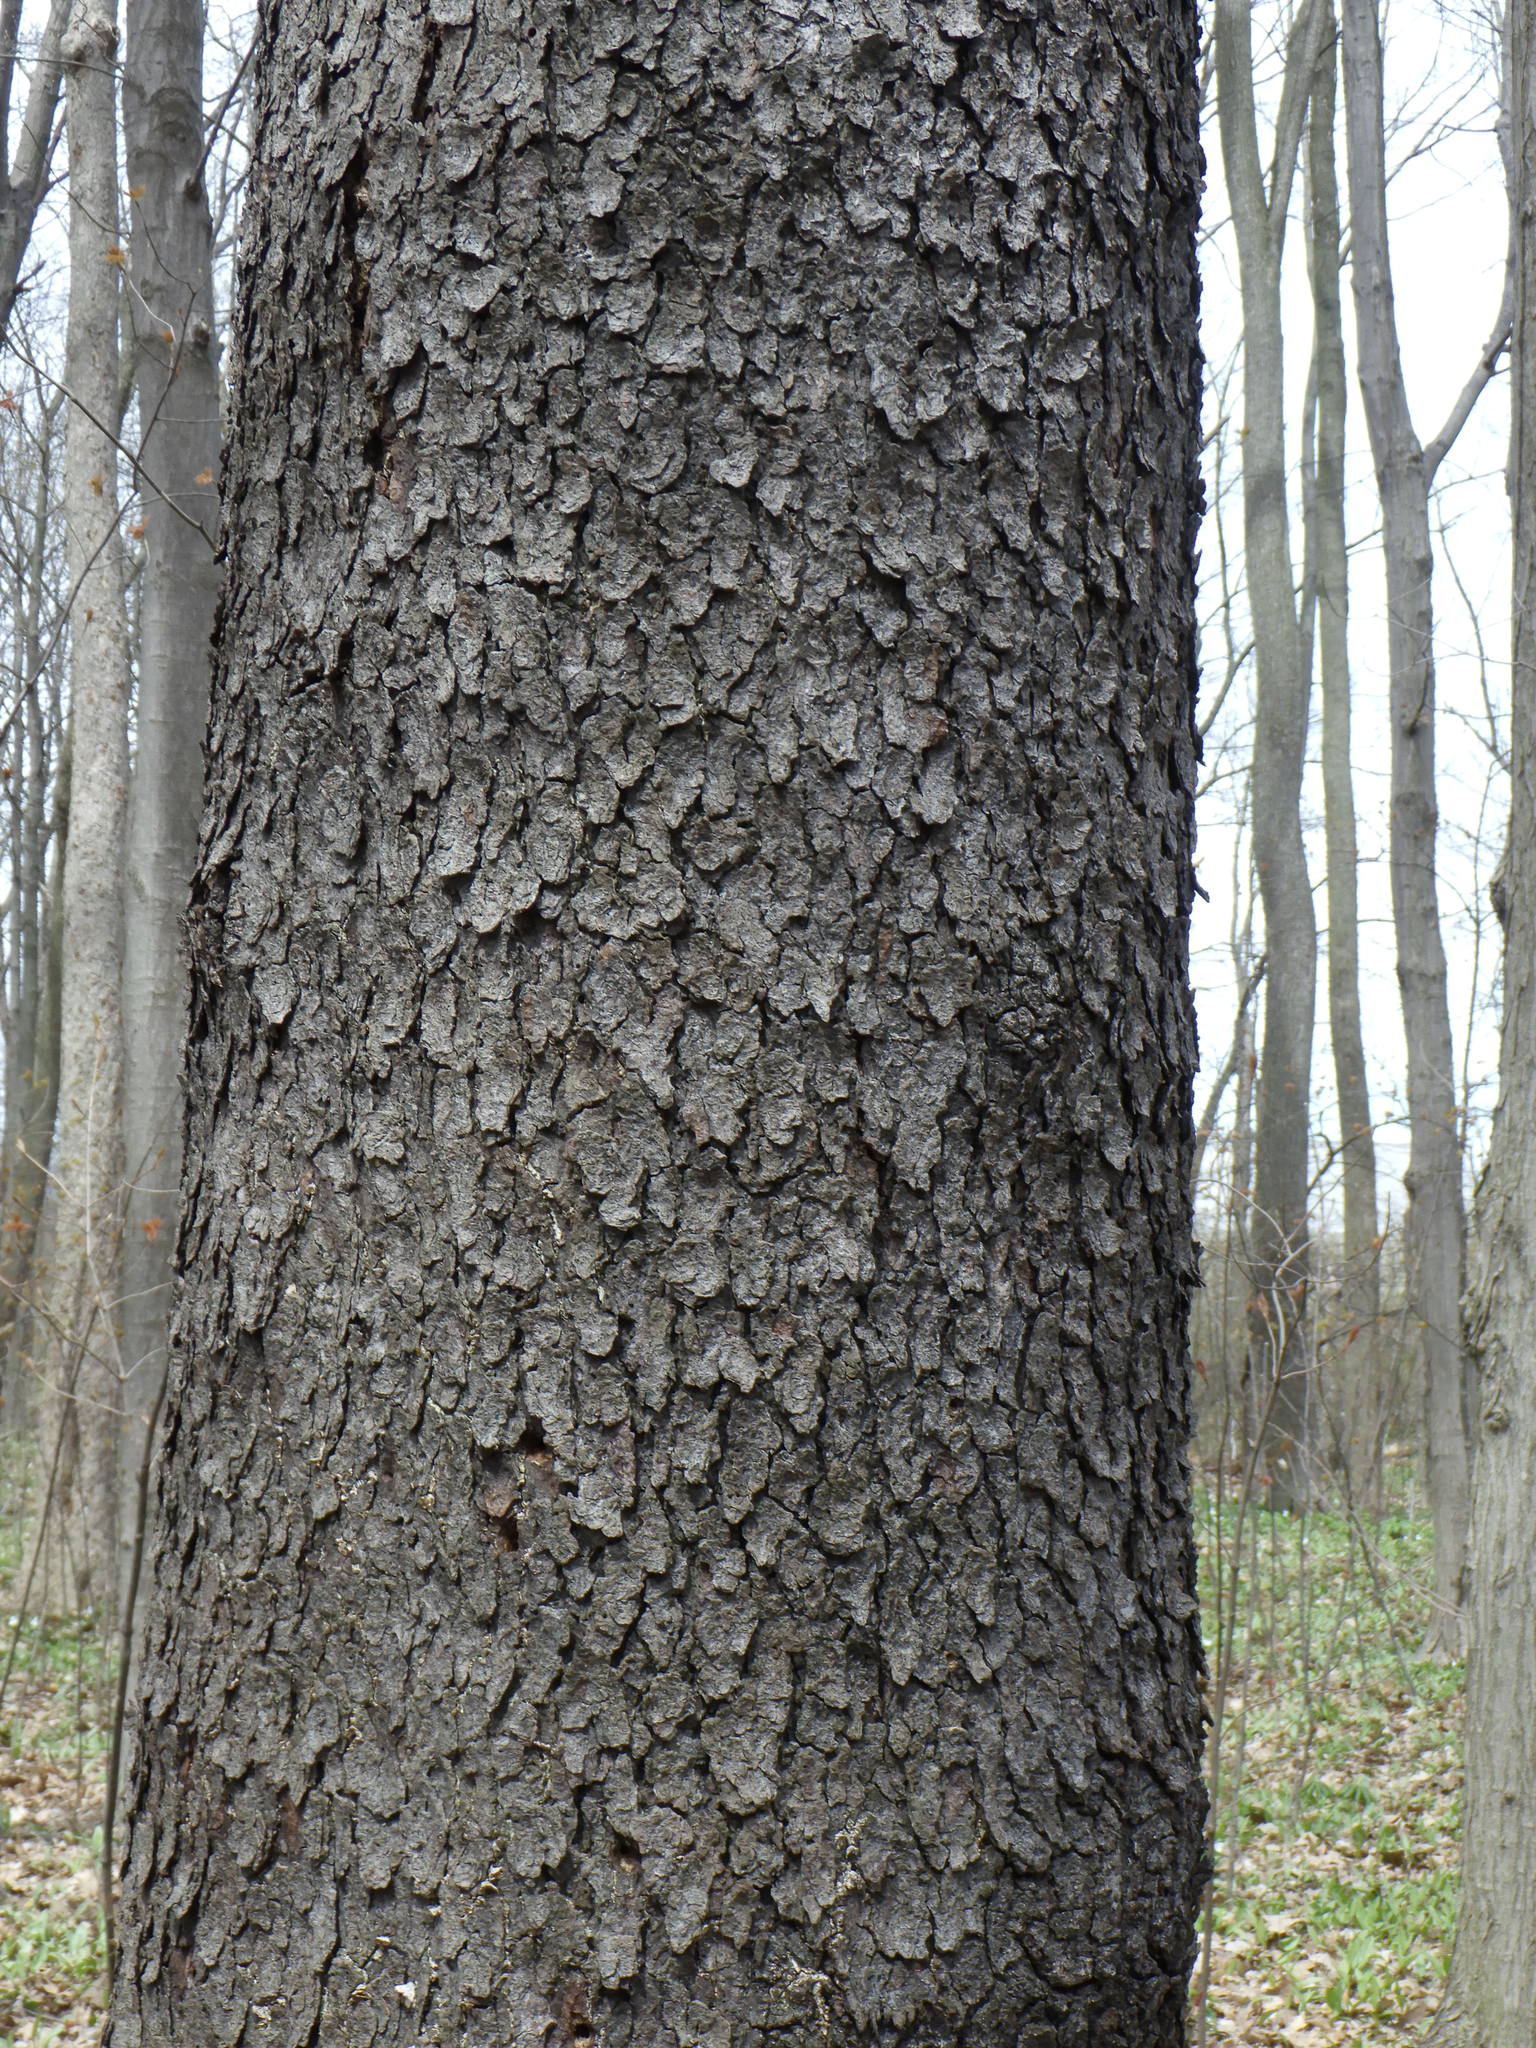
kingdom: Plantae
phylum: Tracheophyta
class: Magnoliopsida
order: Rosales
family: Rosaceae
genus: Prunus
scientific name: Prunus serotina
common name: Black cherry
